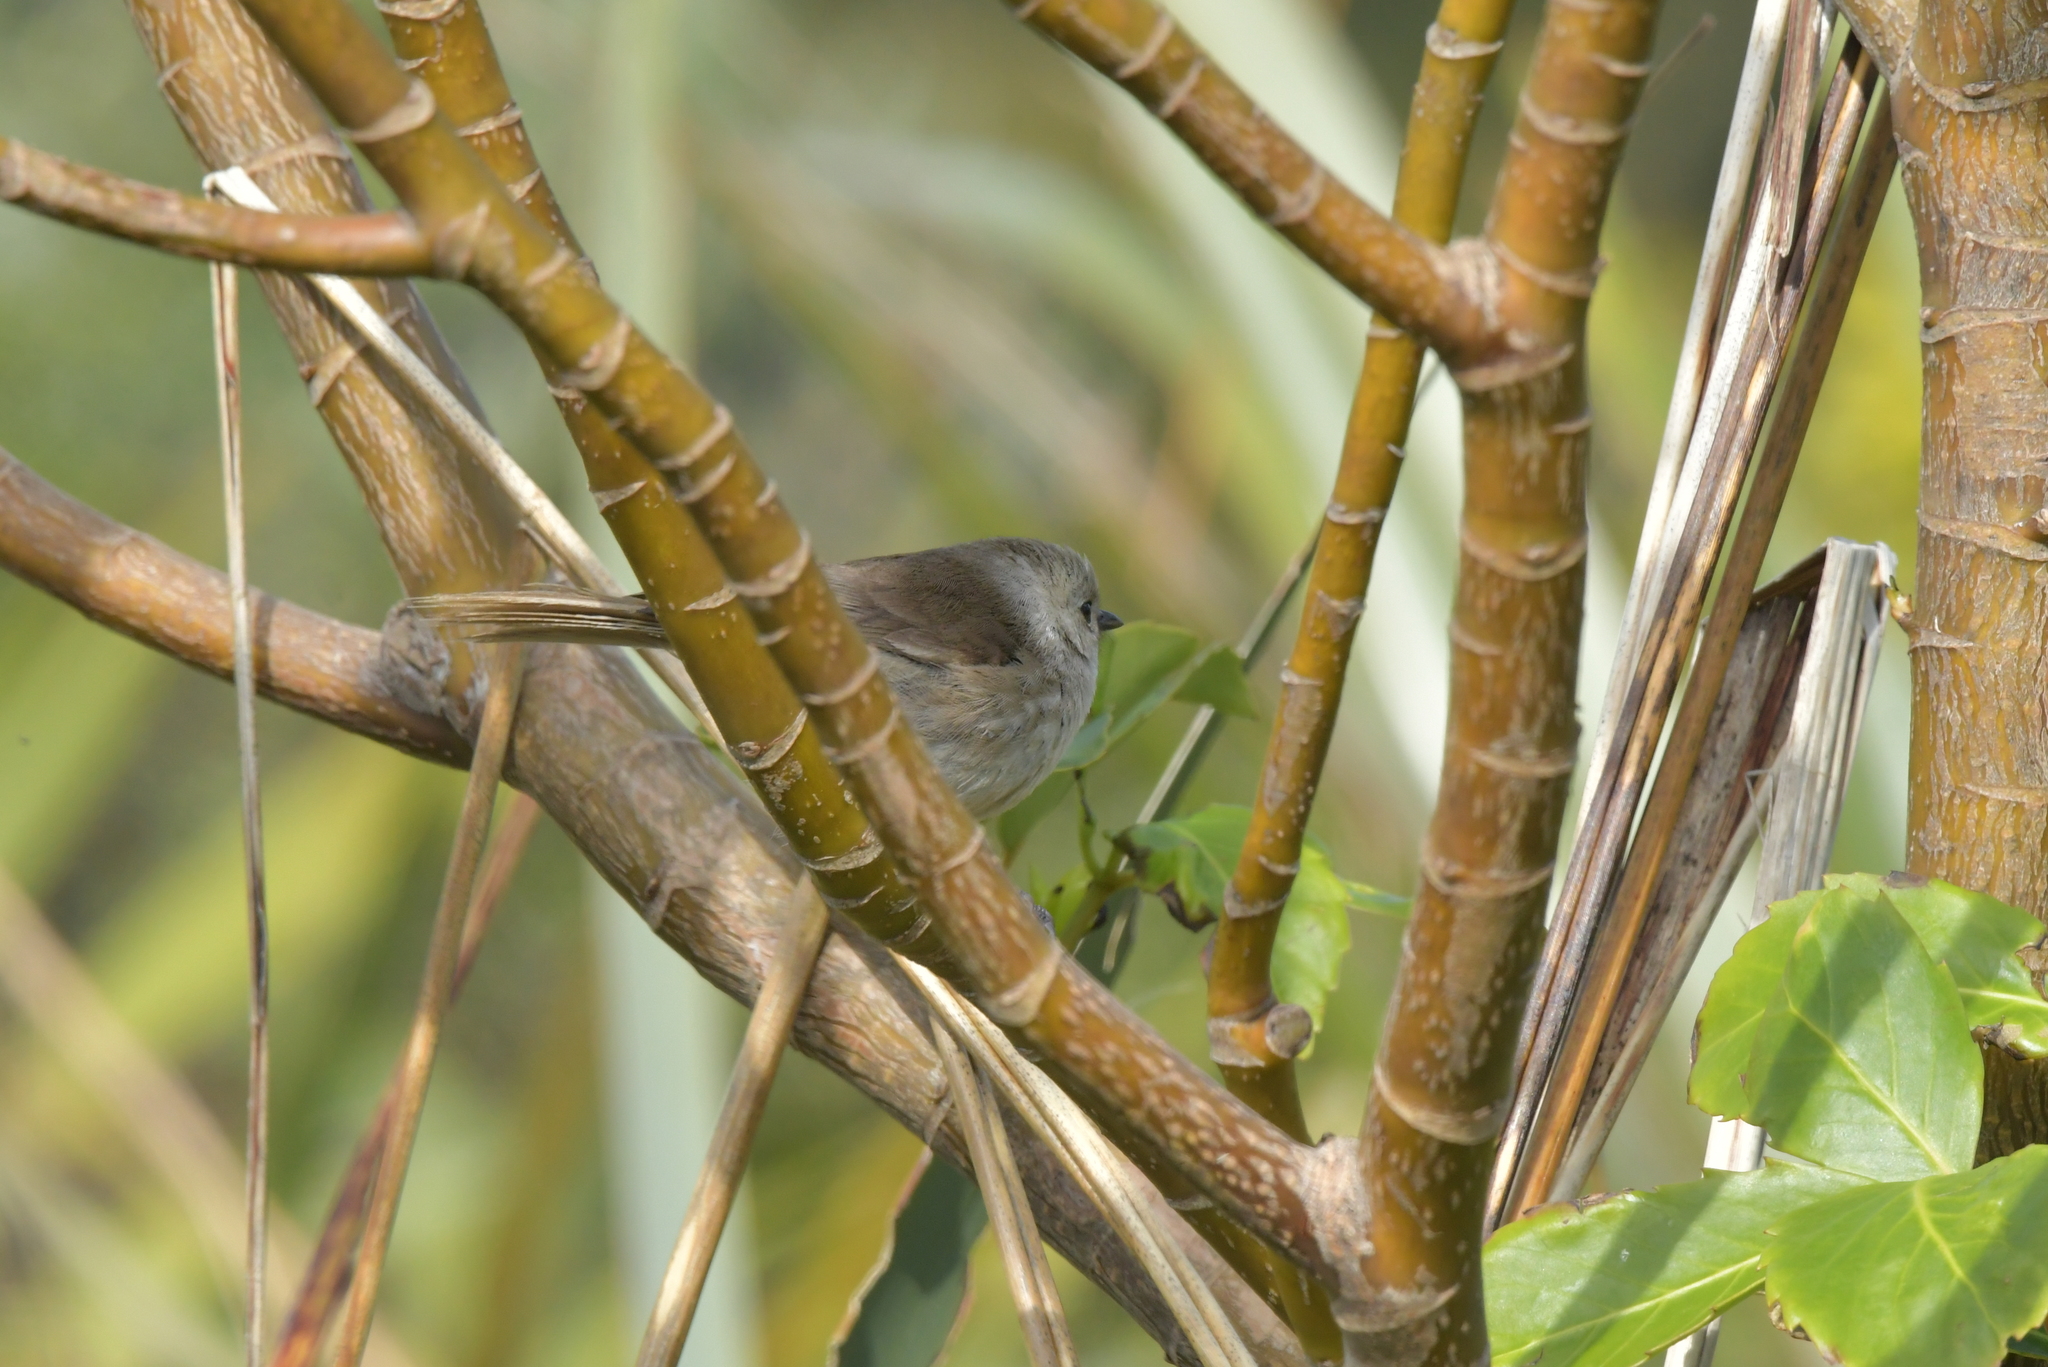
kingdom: Animalia
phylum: Chordata
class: Aves
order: Passeriformes
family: Acanthizidae
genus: Mohoua
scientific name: Mohoua albicilla
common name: Whitehead
